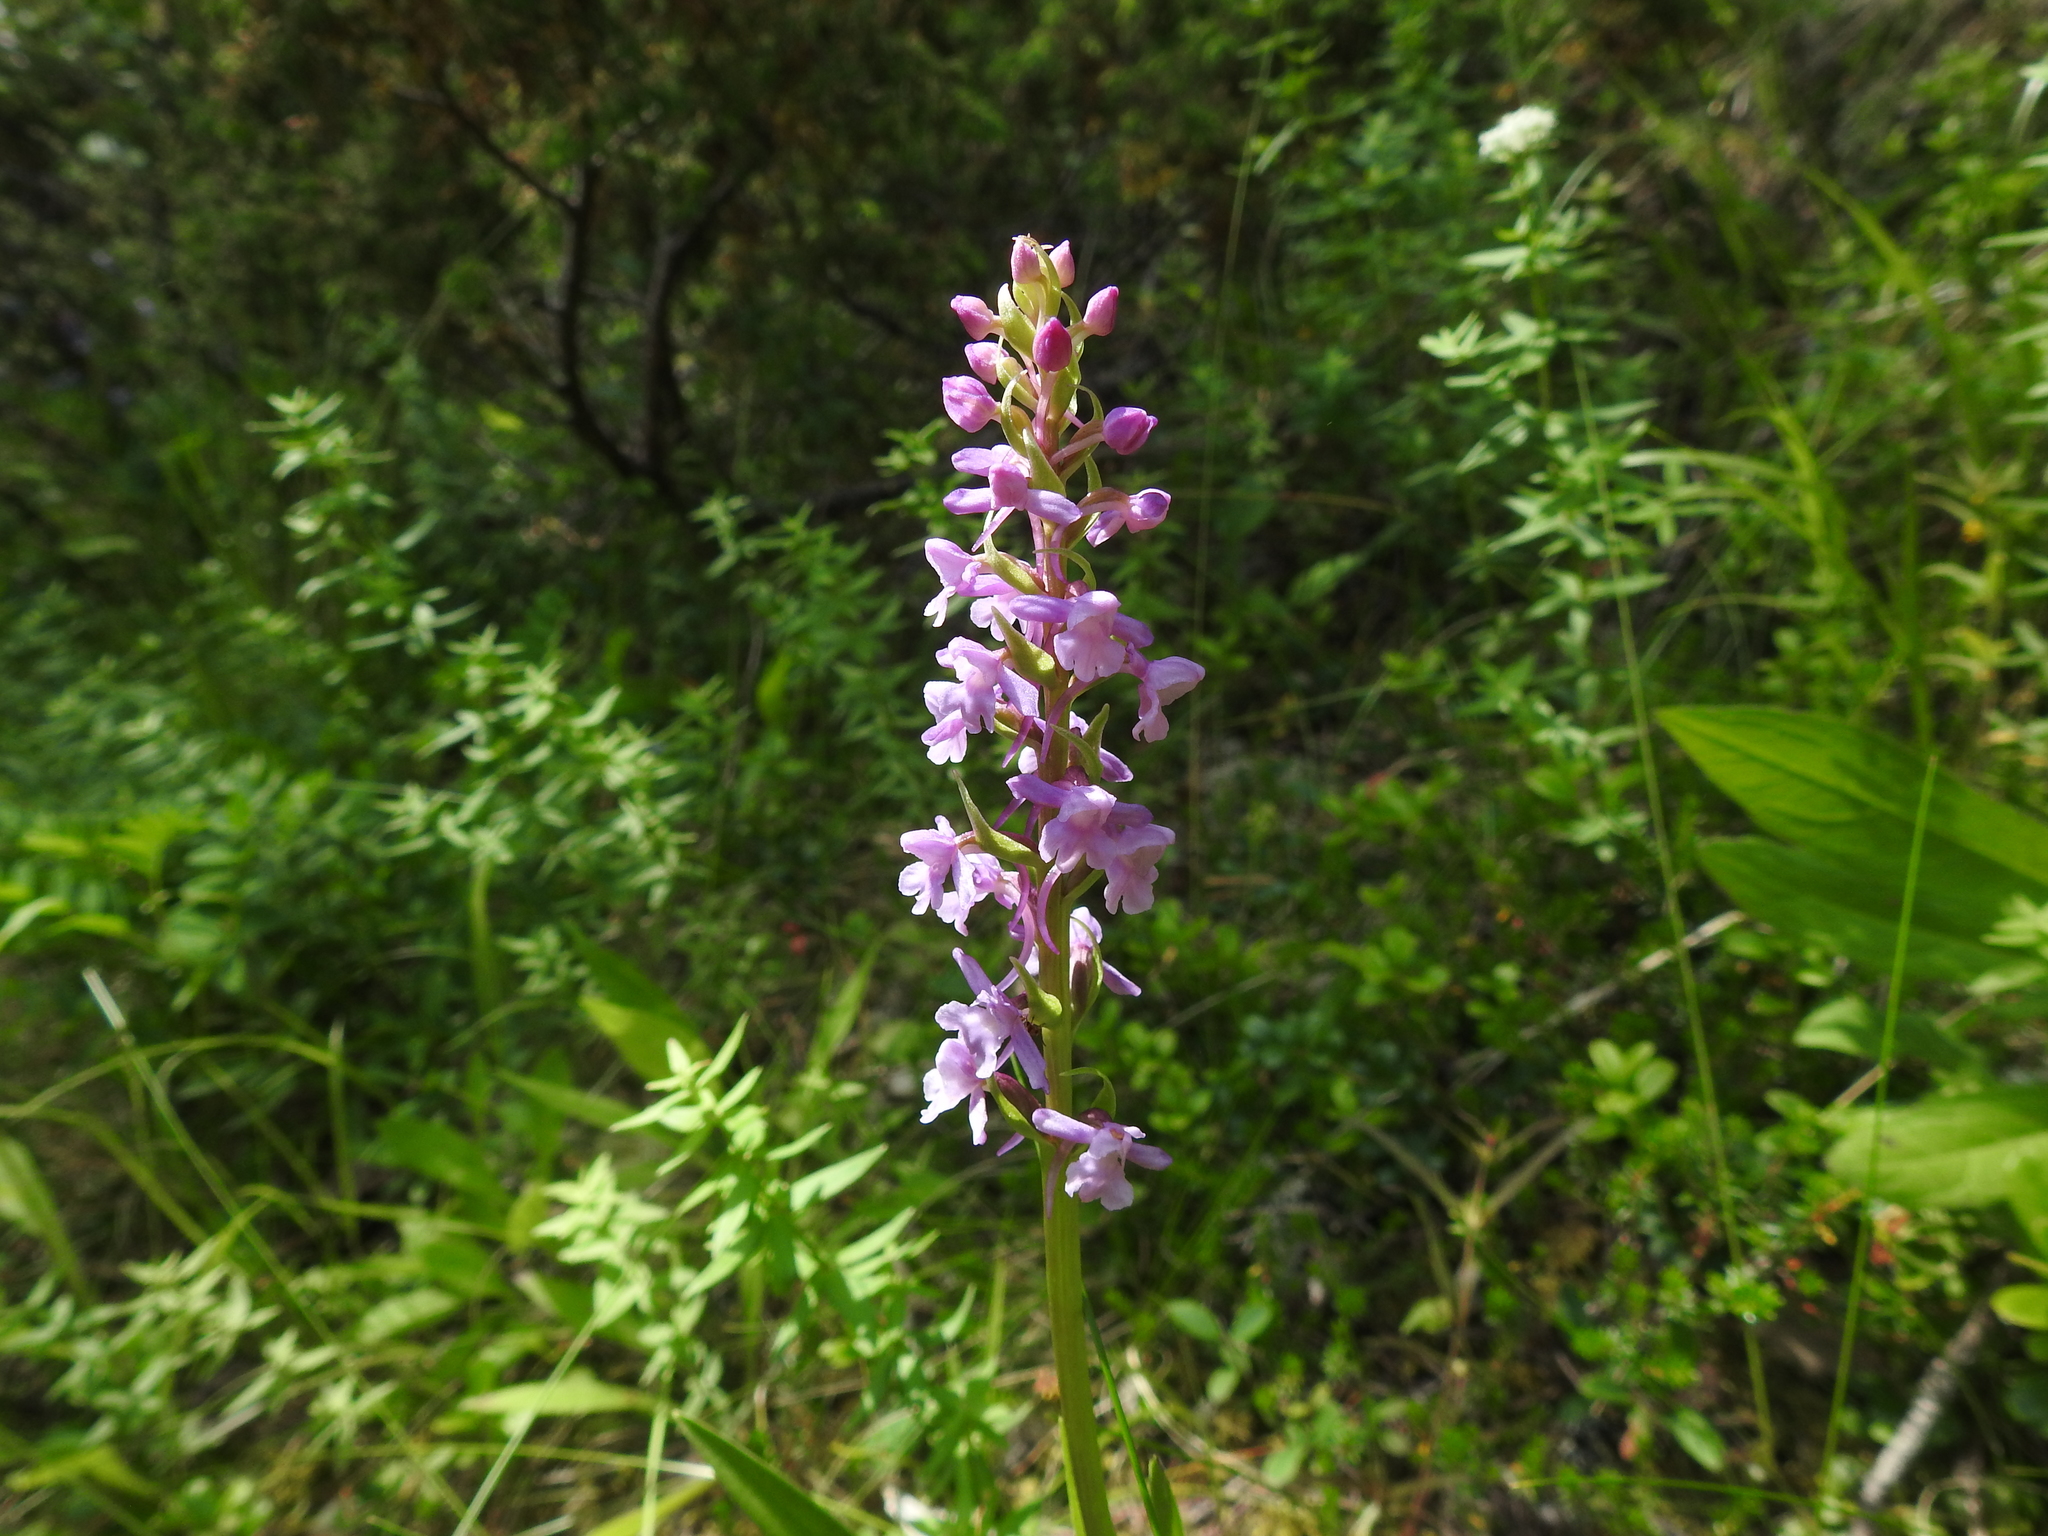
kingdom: Plantae
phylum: Tracheophyta
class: Liliopsida
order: Asparagales
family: Orchidaceae
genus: Gymnadenia
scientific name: Gymnadenia conopsea
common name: Fragrant orchid
